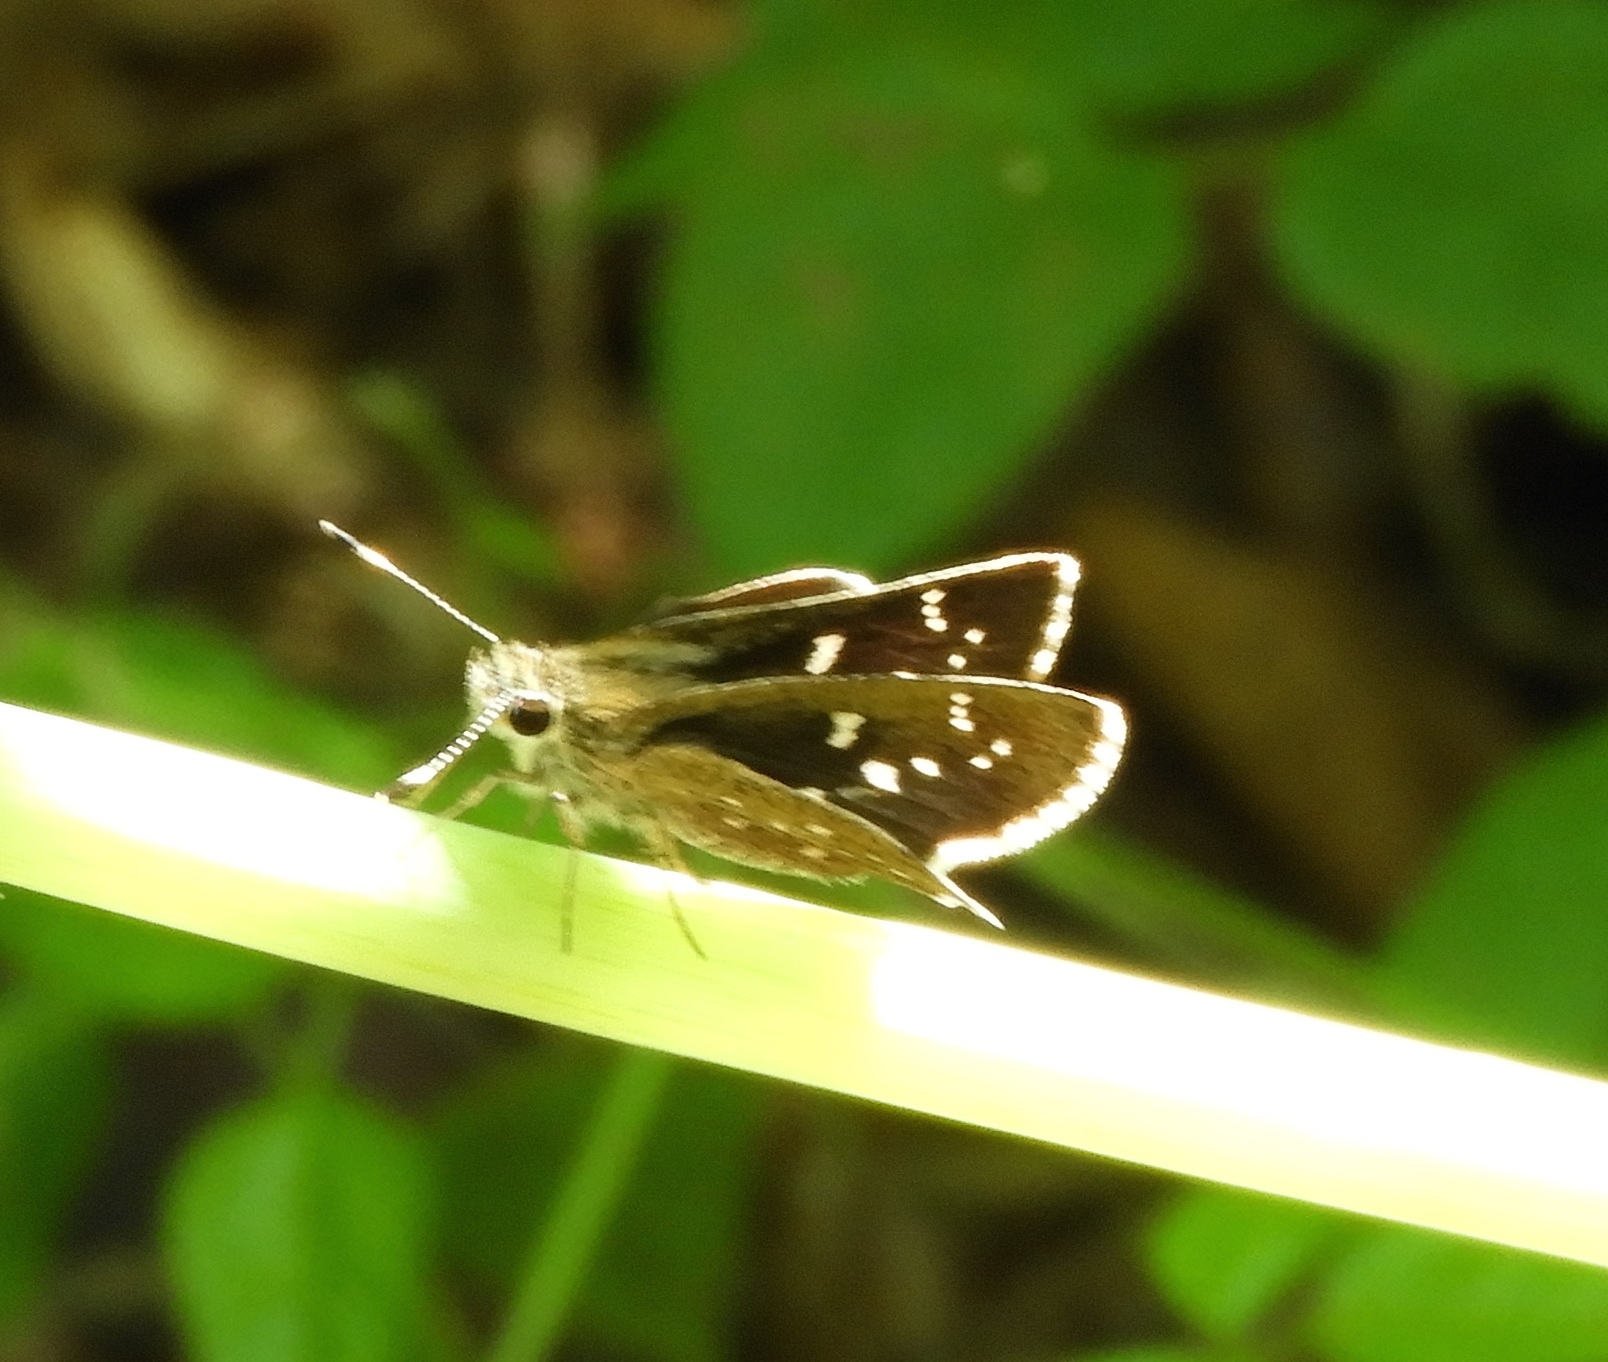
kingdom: Animalia
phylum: Arthropoda
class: Insecta
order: Lepidoptera
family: Hesperiidae
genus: Mastor
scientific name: Mastor tolteca
